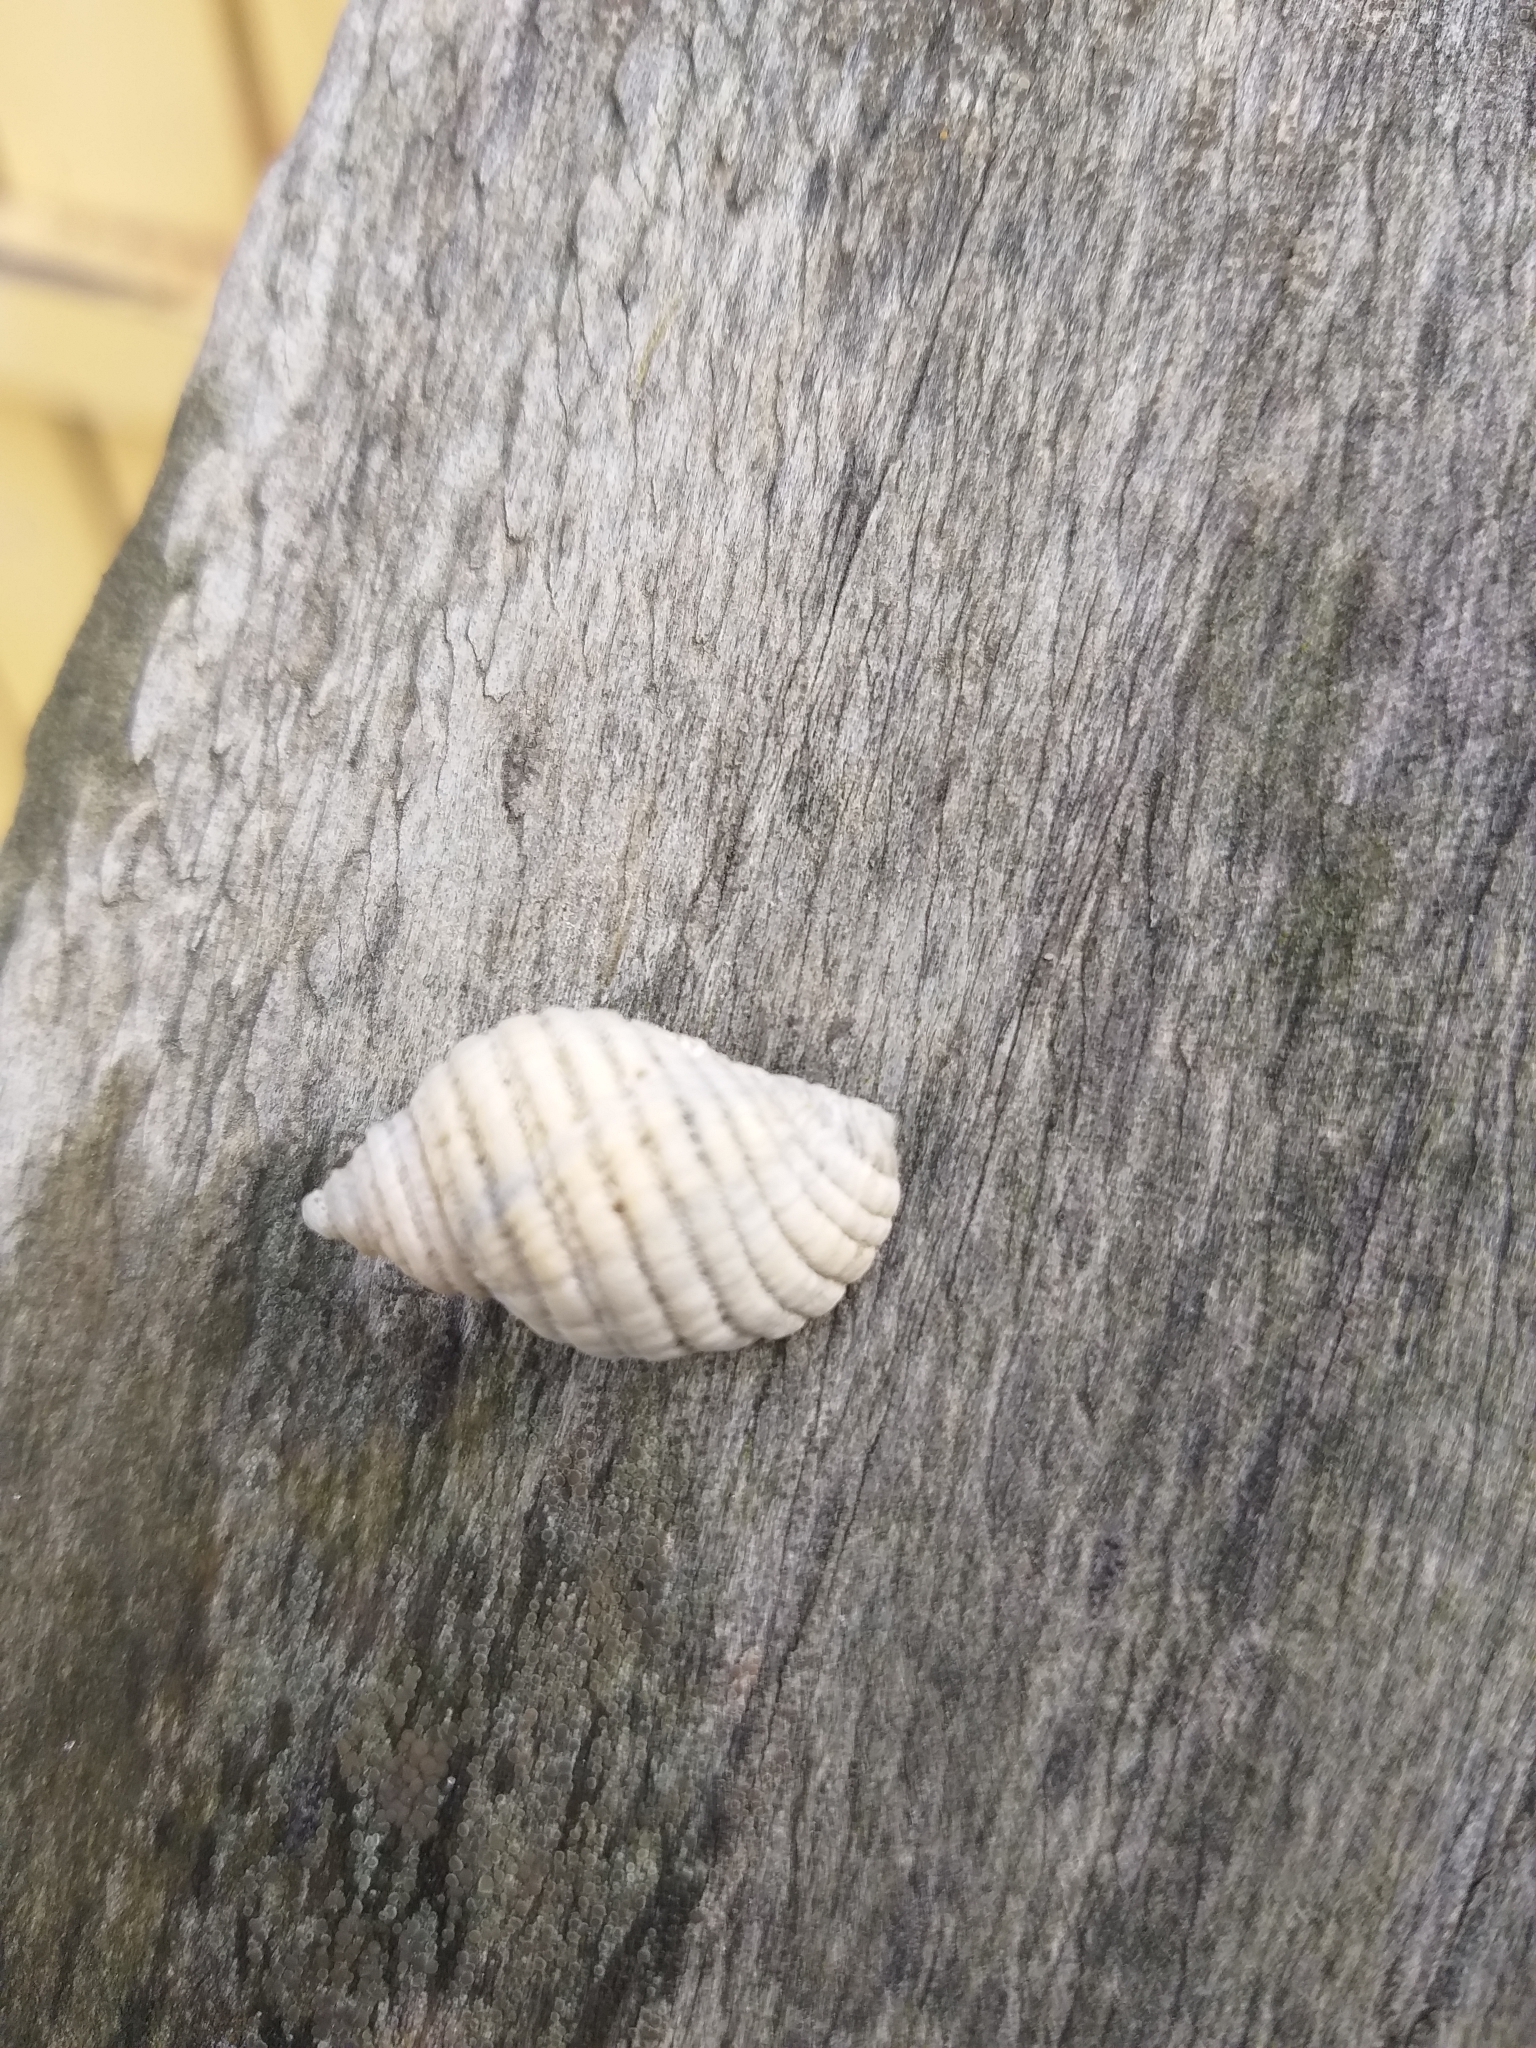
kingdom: Animalia
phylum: Mollusca
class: Gastropoda
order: Neogastropoda
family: Muricidae
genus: Haustrum
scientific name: Haustrum lacunosum
